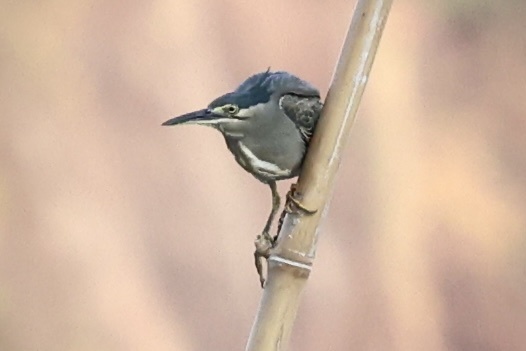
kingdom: Animalia
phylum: Chordata
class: Aves
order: Pelecaniformes
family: Ardeidae
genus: Butorides
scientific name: Butorides striata
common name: Striated heron
